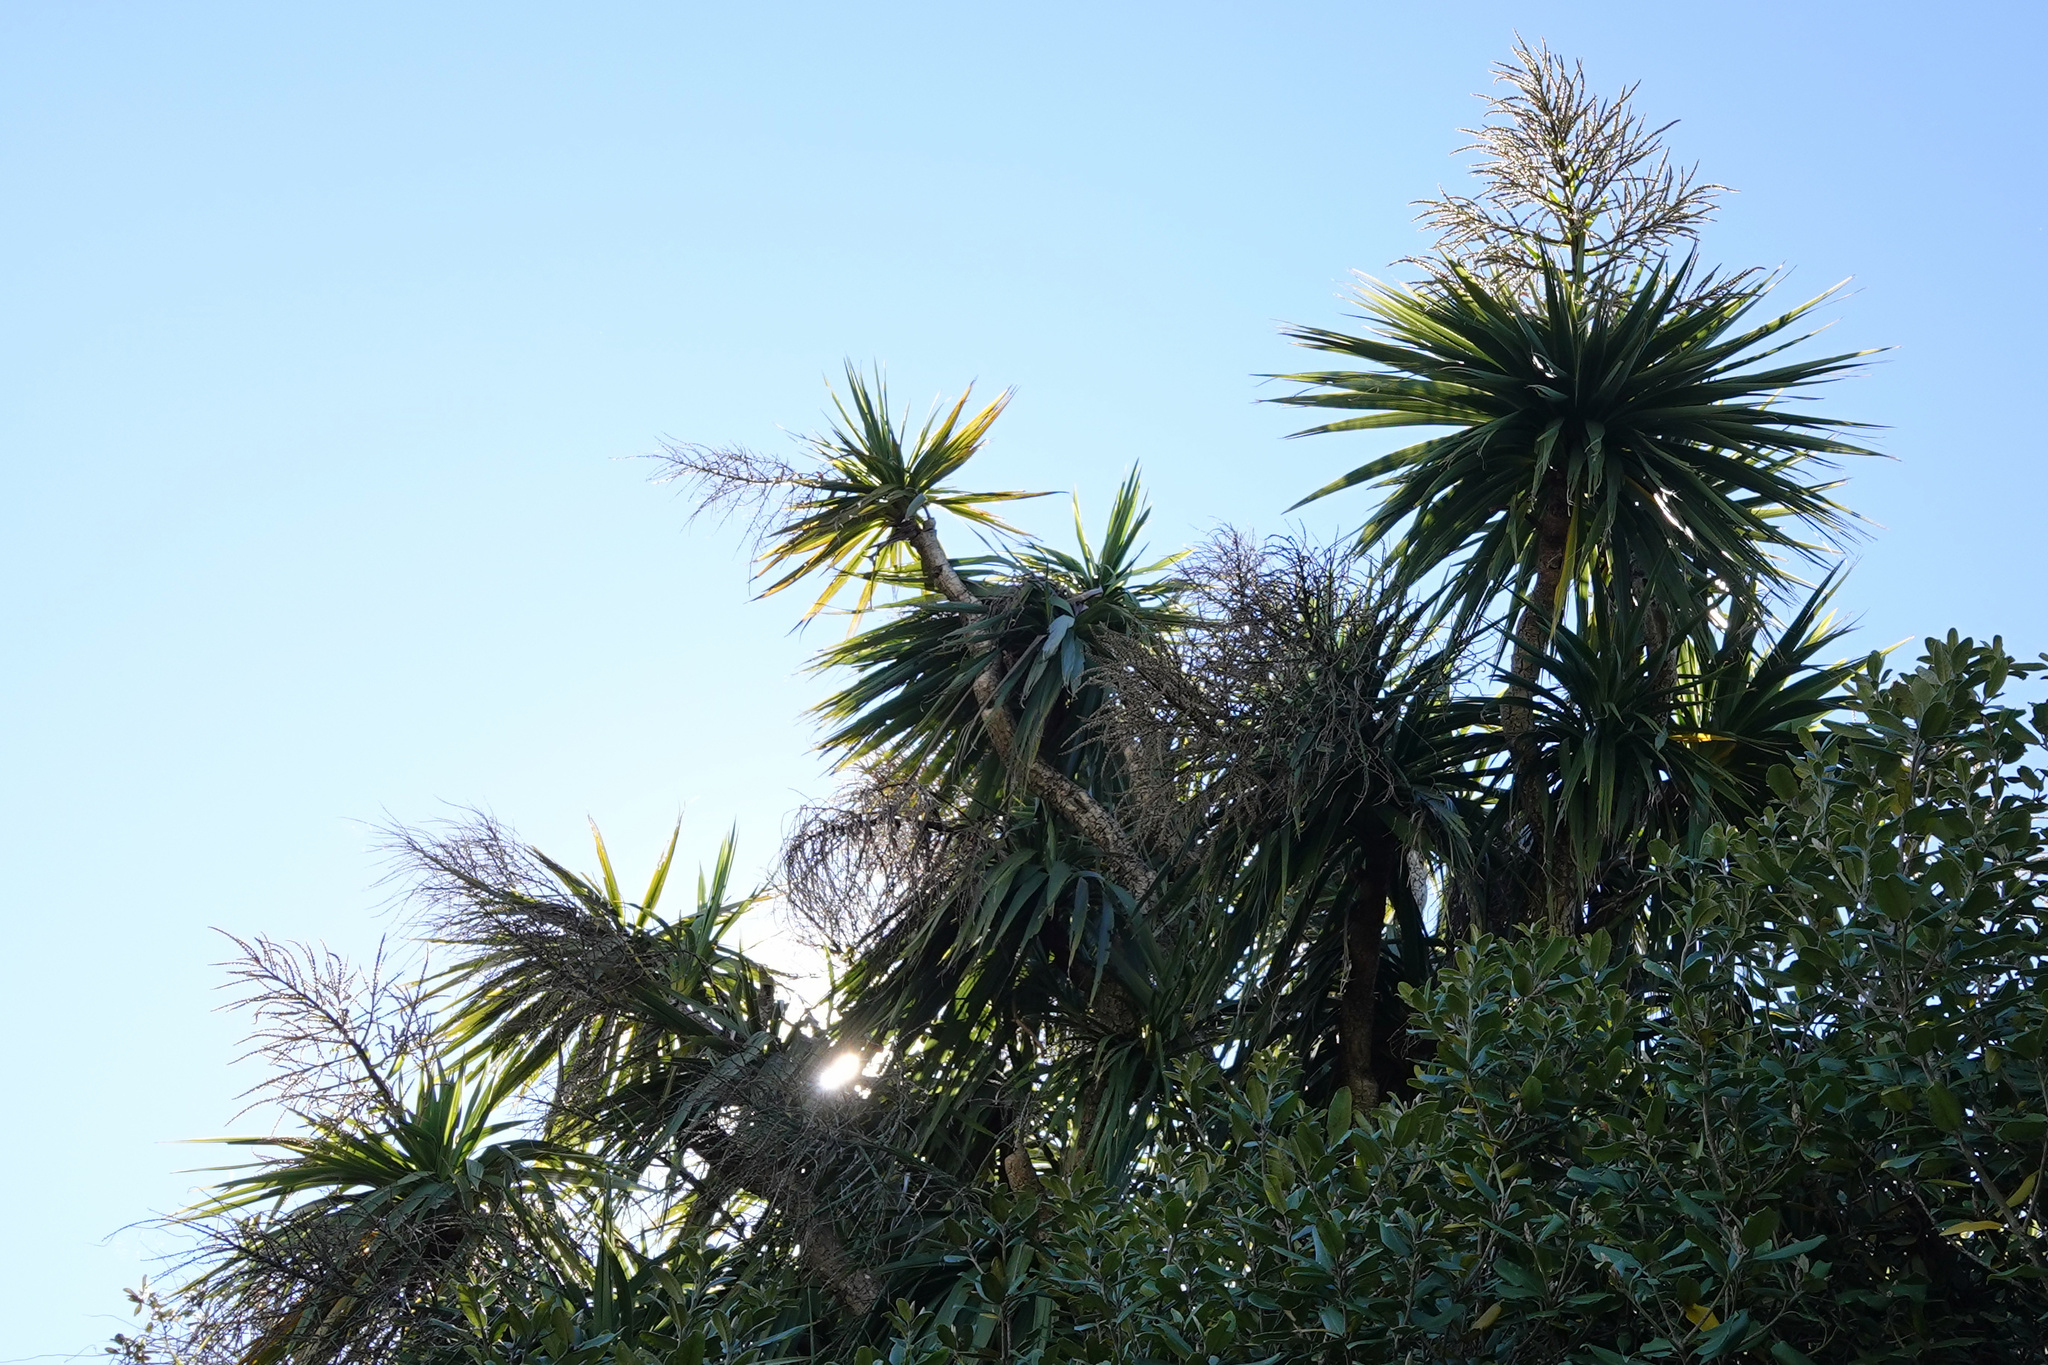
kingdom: Plantae
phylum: Tracheophyta
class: Liliopsida
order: Asparagales
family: Asparagaceae
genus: Cordyline
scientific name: Cordyline australis
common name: Cabbage-palm
